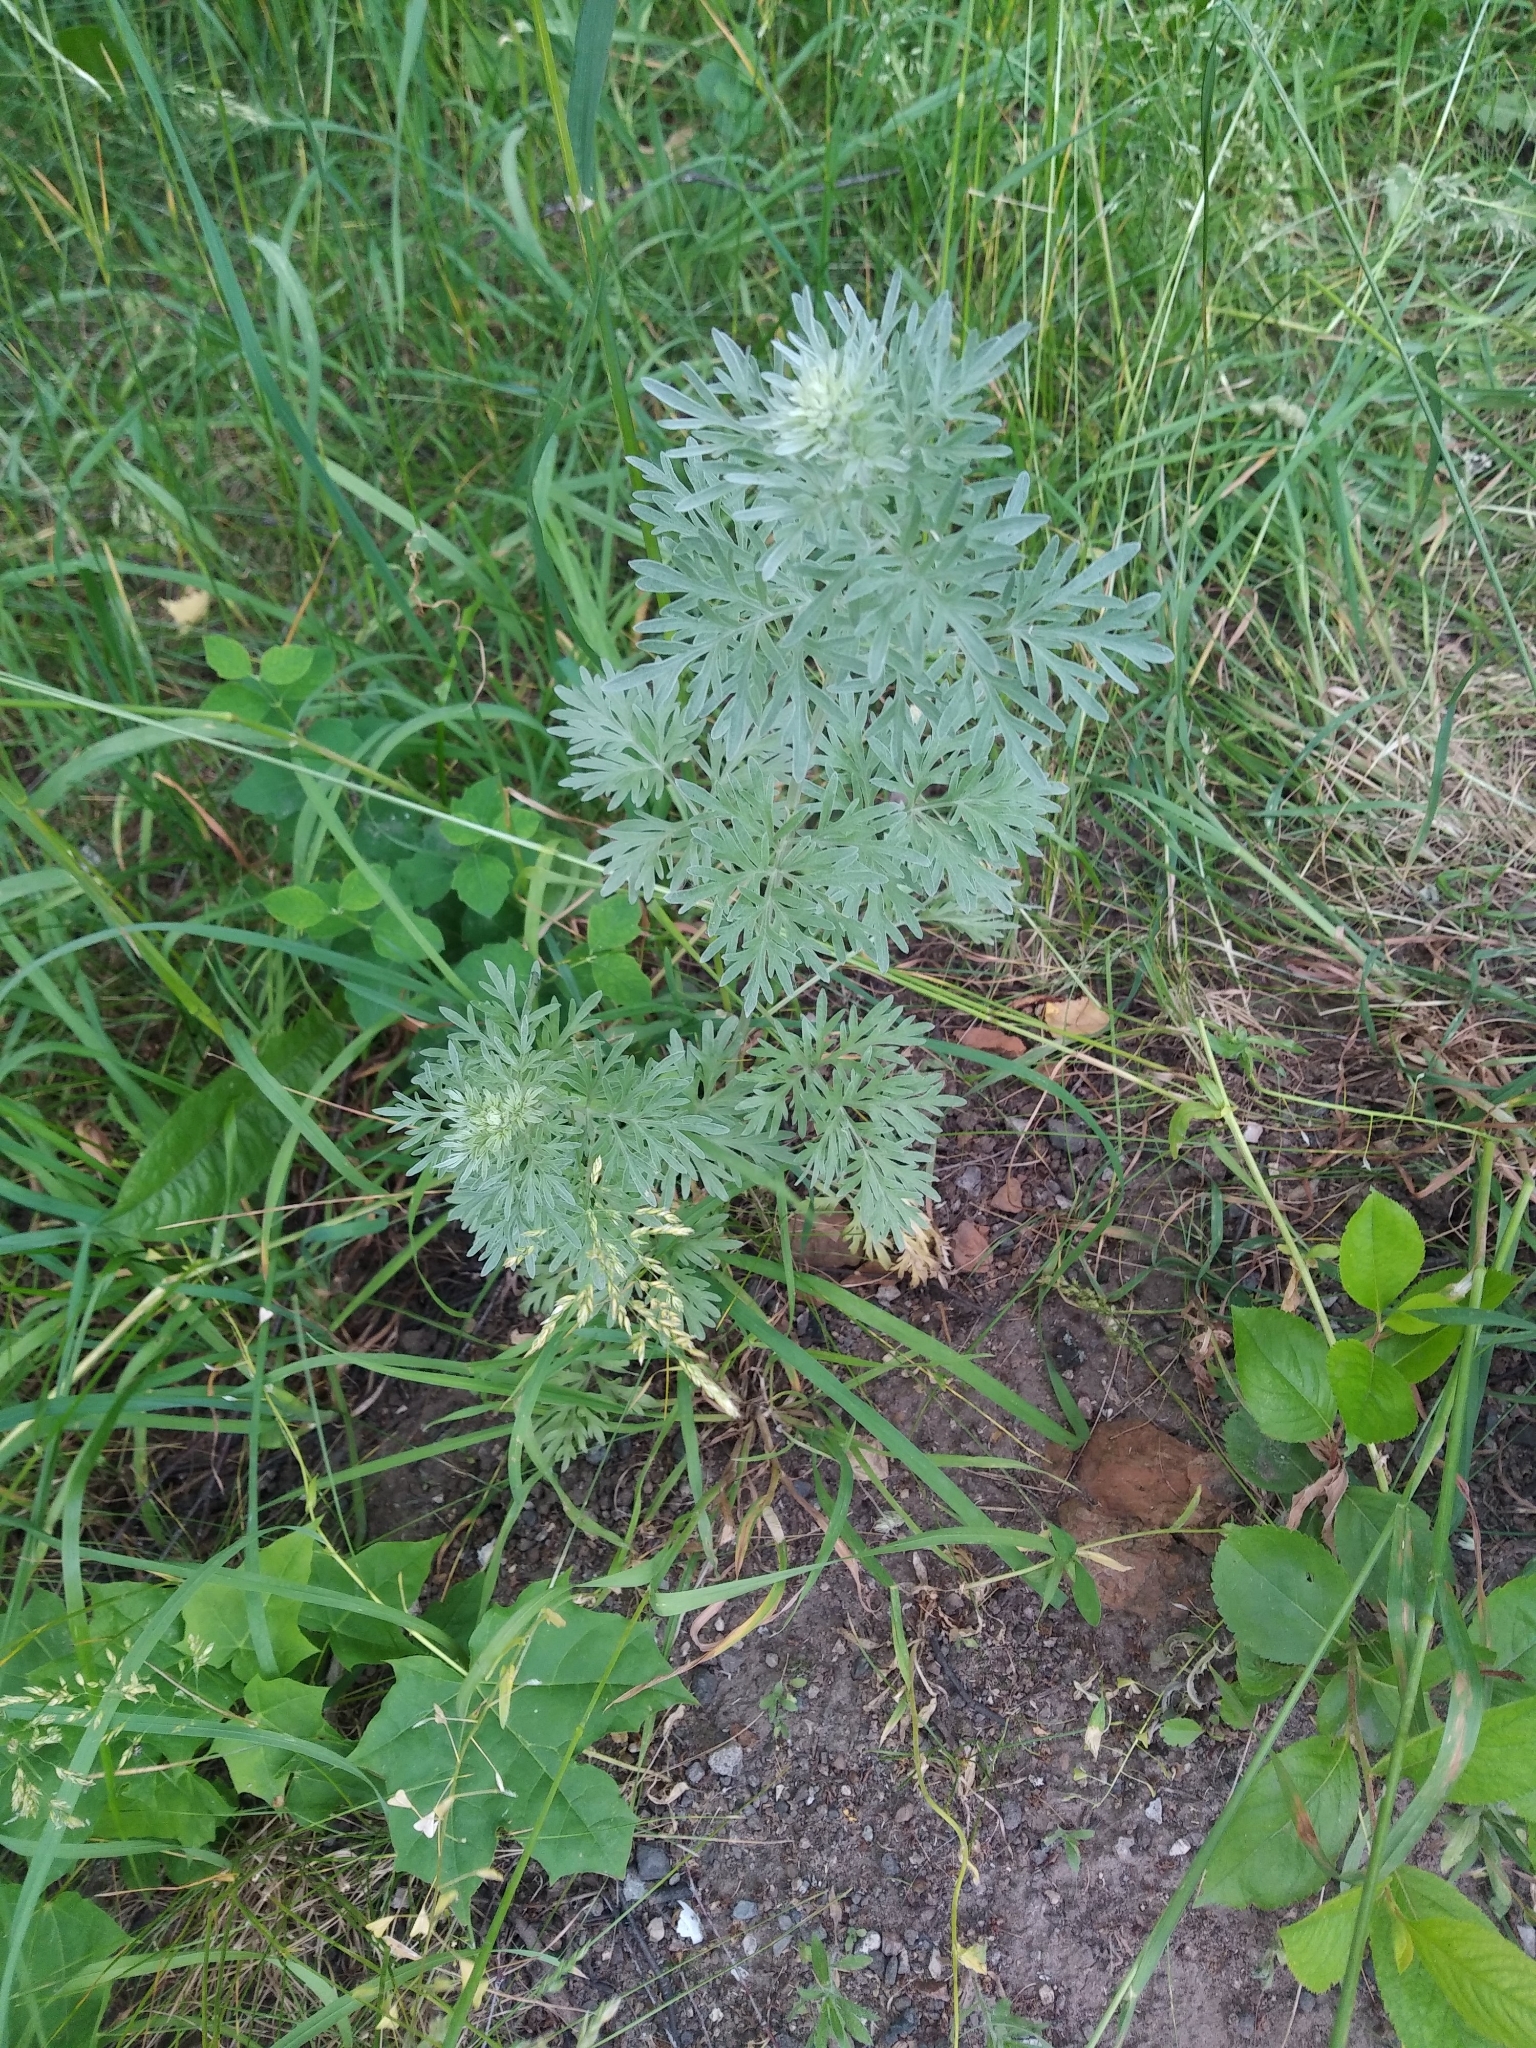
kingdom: Plantae
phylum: Tracheophyta
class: Magnoliopsida
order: Asterales
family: Asteraceae
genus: Artemisia
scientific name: Artemisia absinthium
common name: Wormwood
